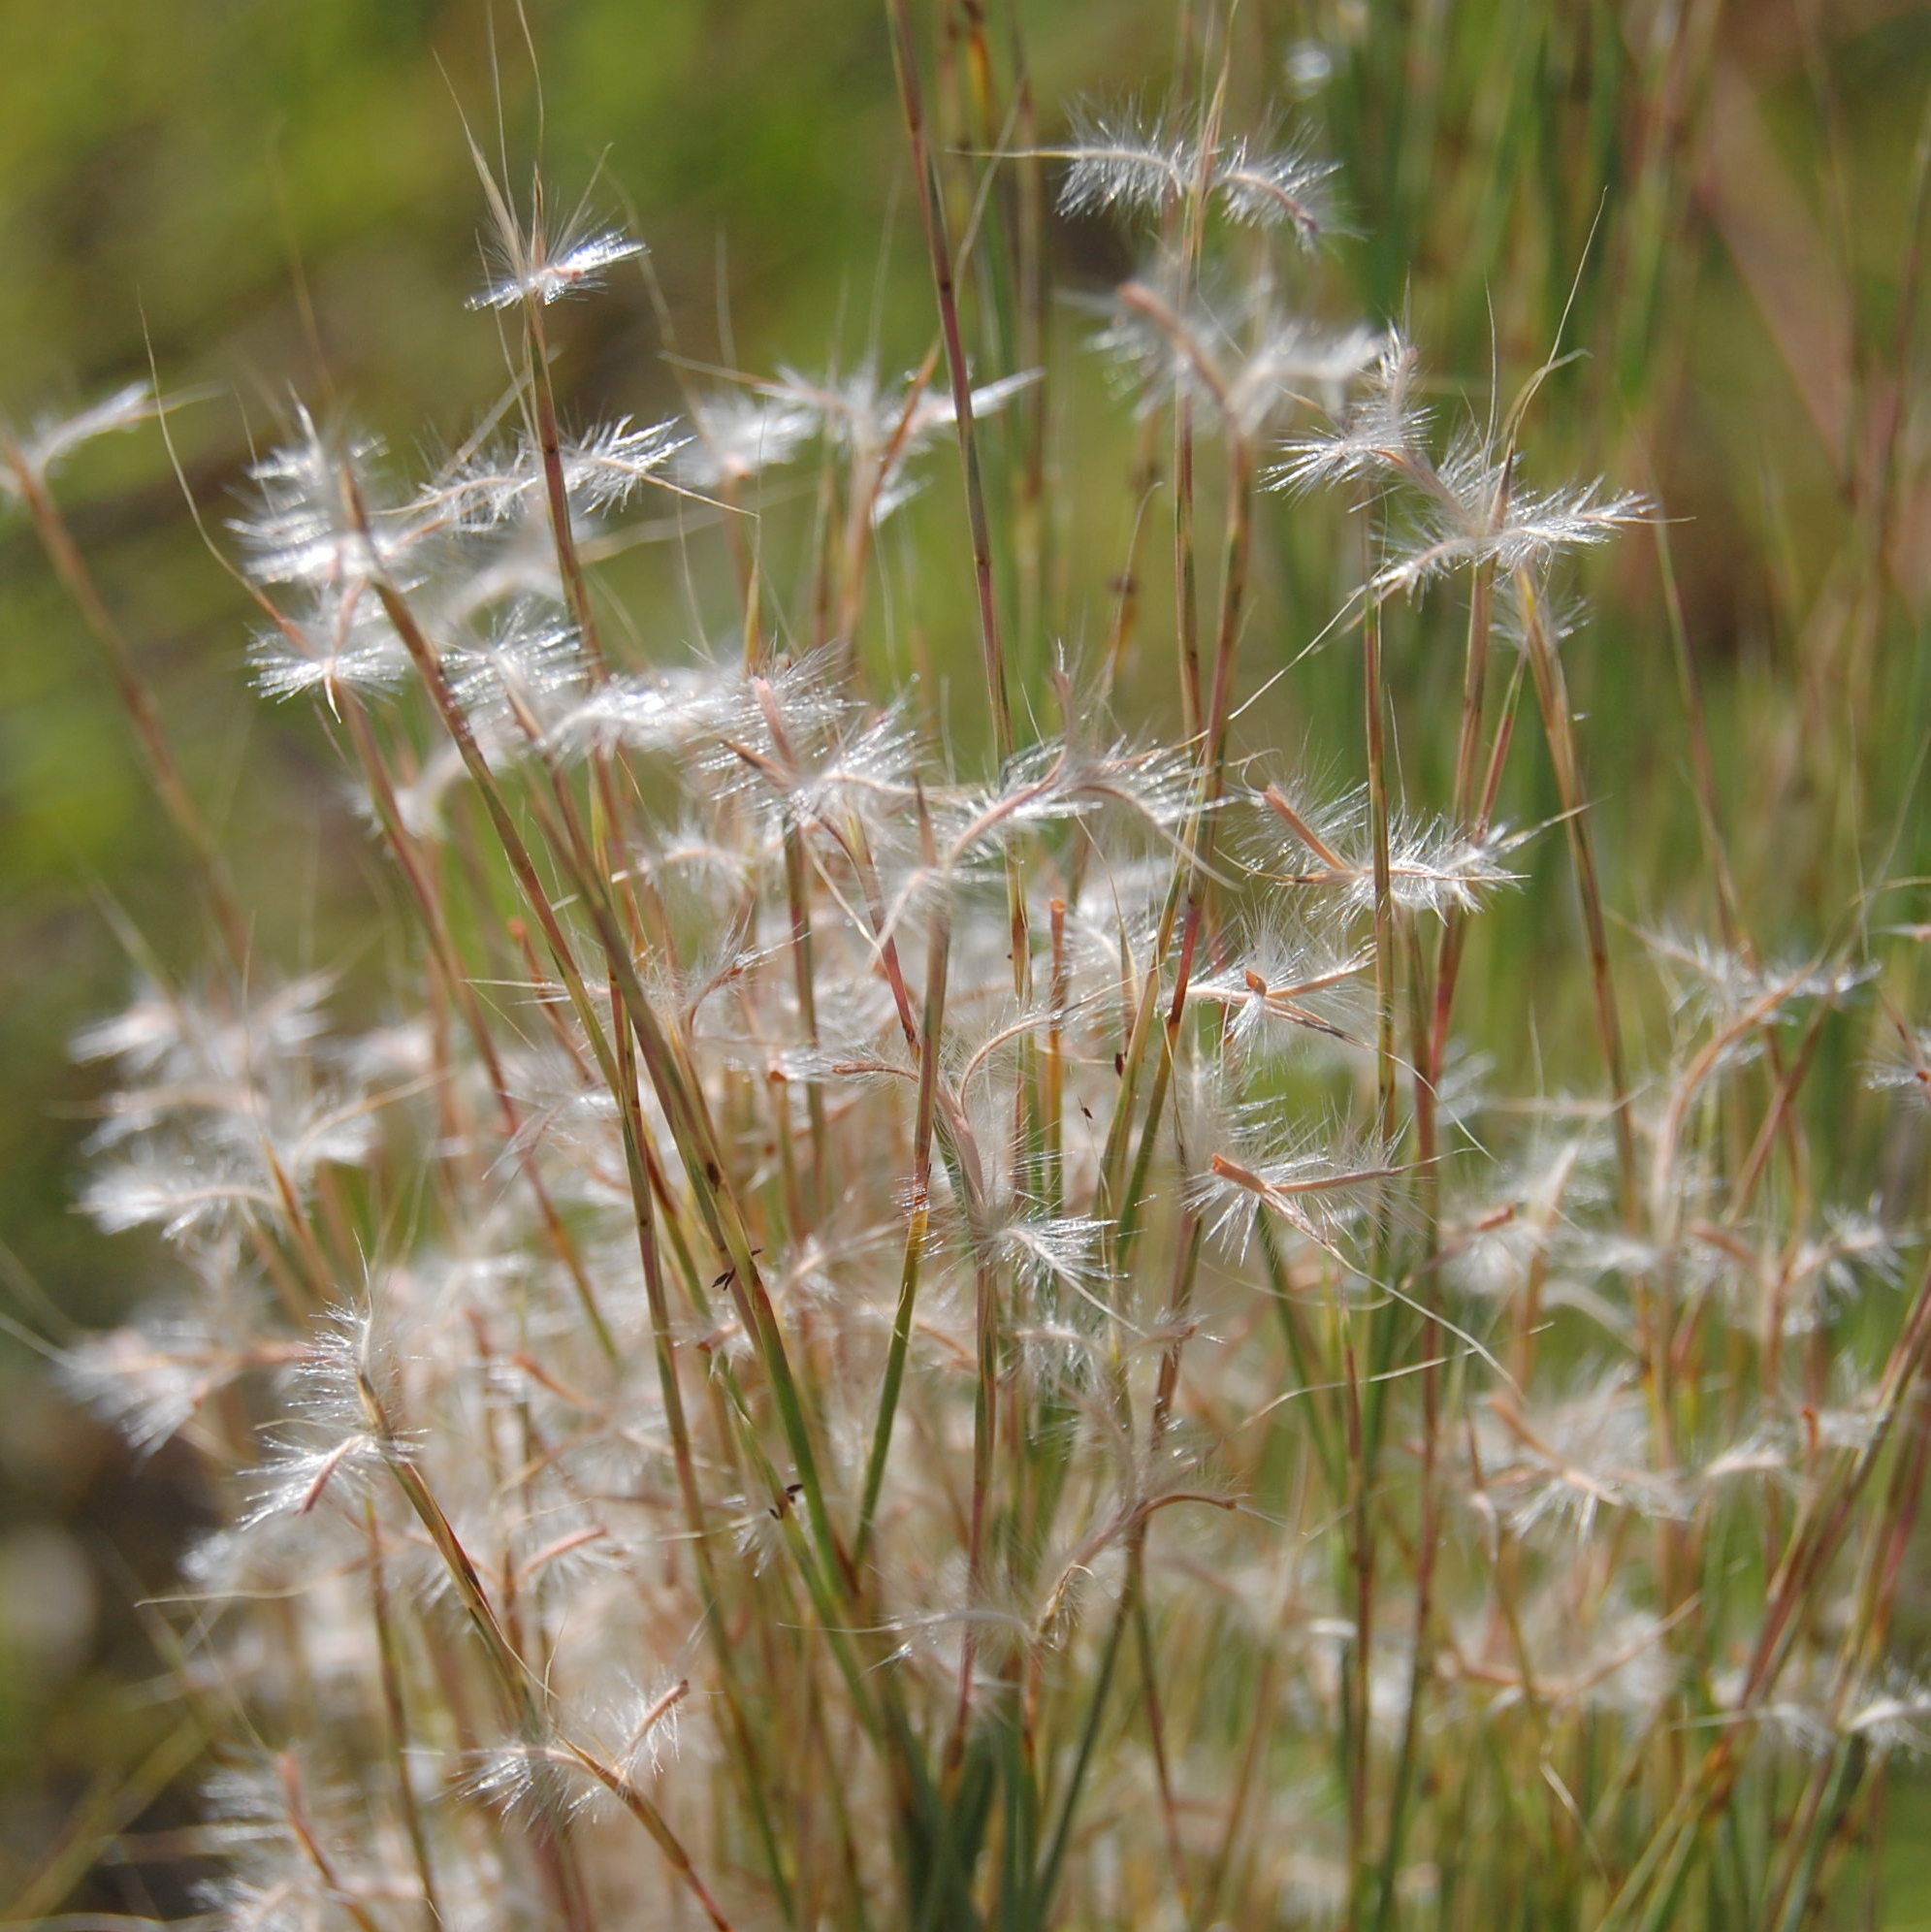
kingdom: Plantae
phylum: Tracheophyta
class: Liliopsida
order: Poales
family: Poaceae
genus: Schizachyrium
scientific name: Schizachyrium microstachyum
